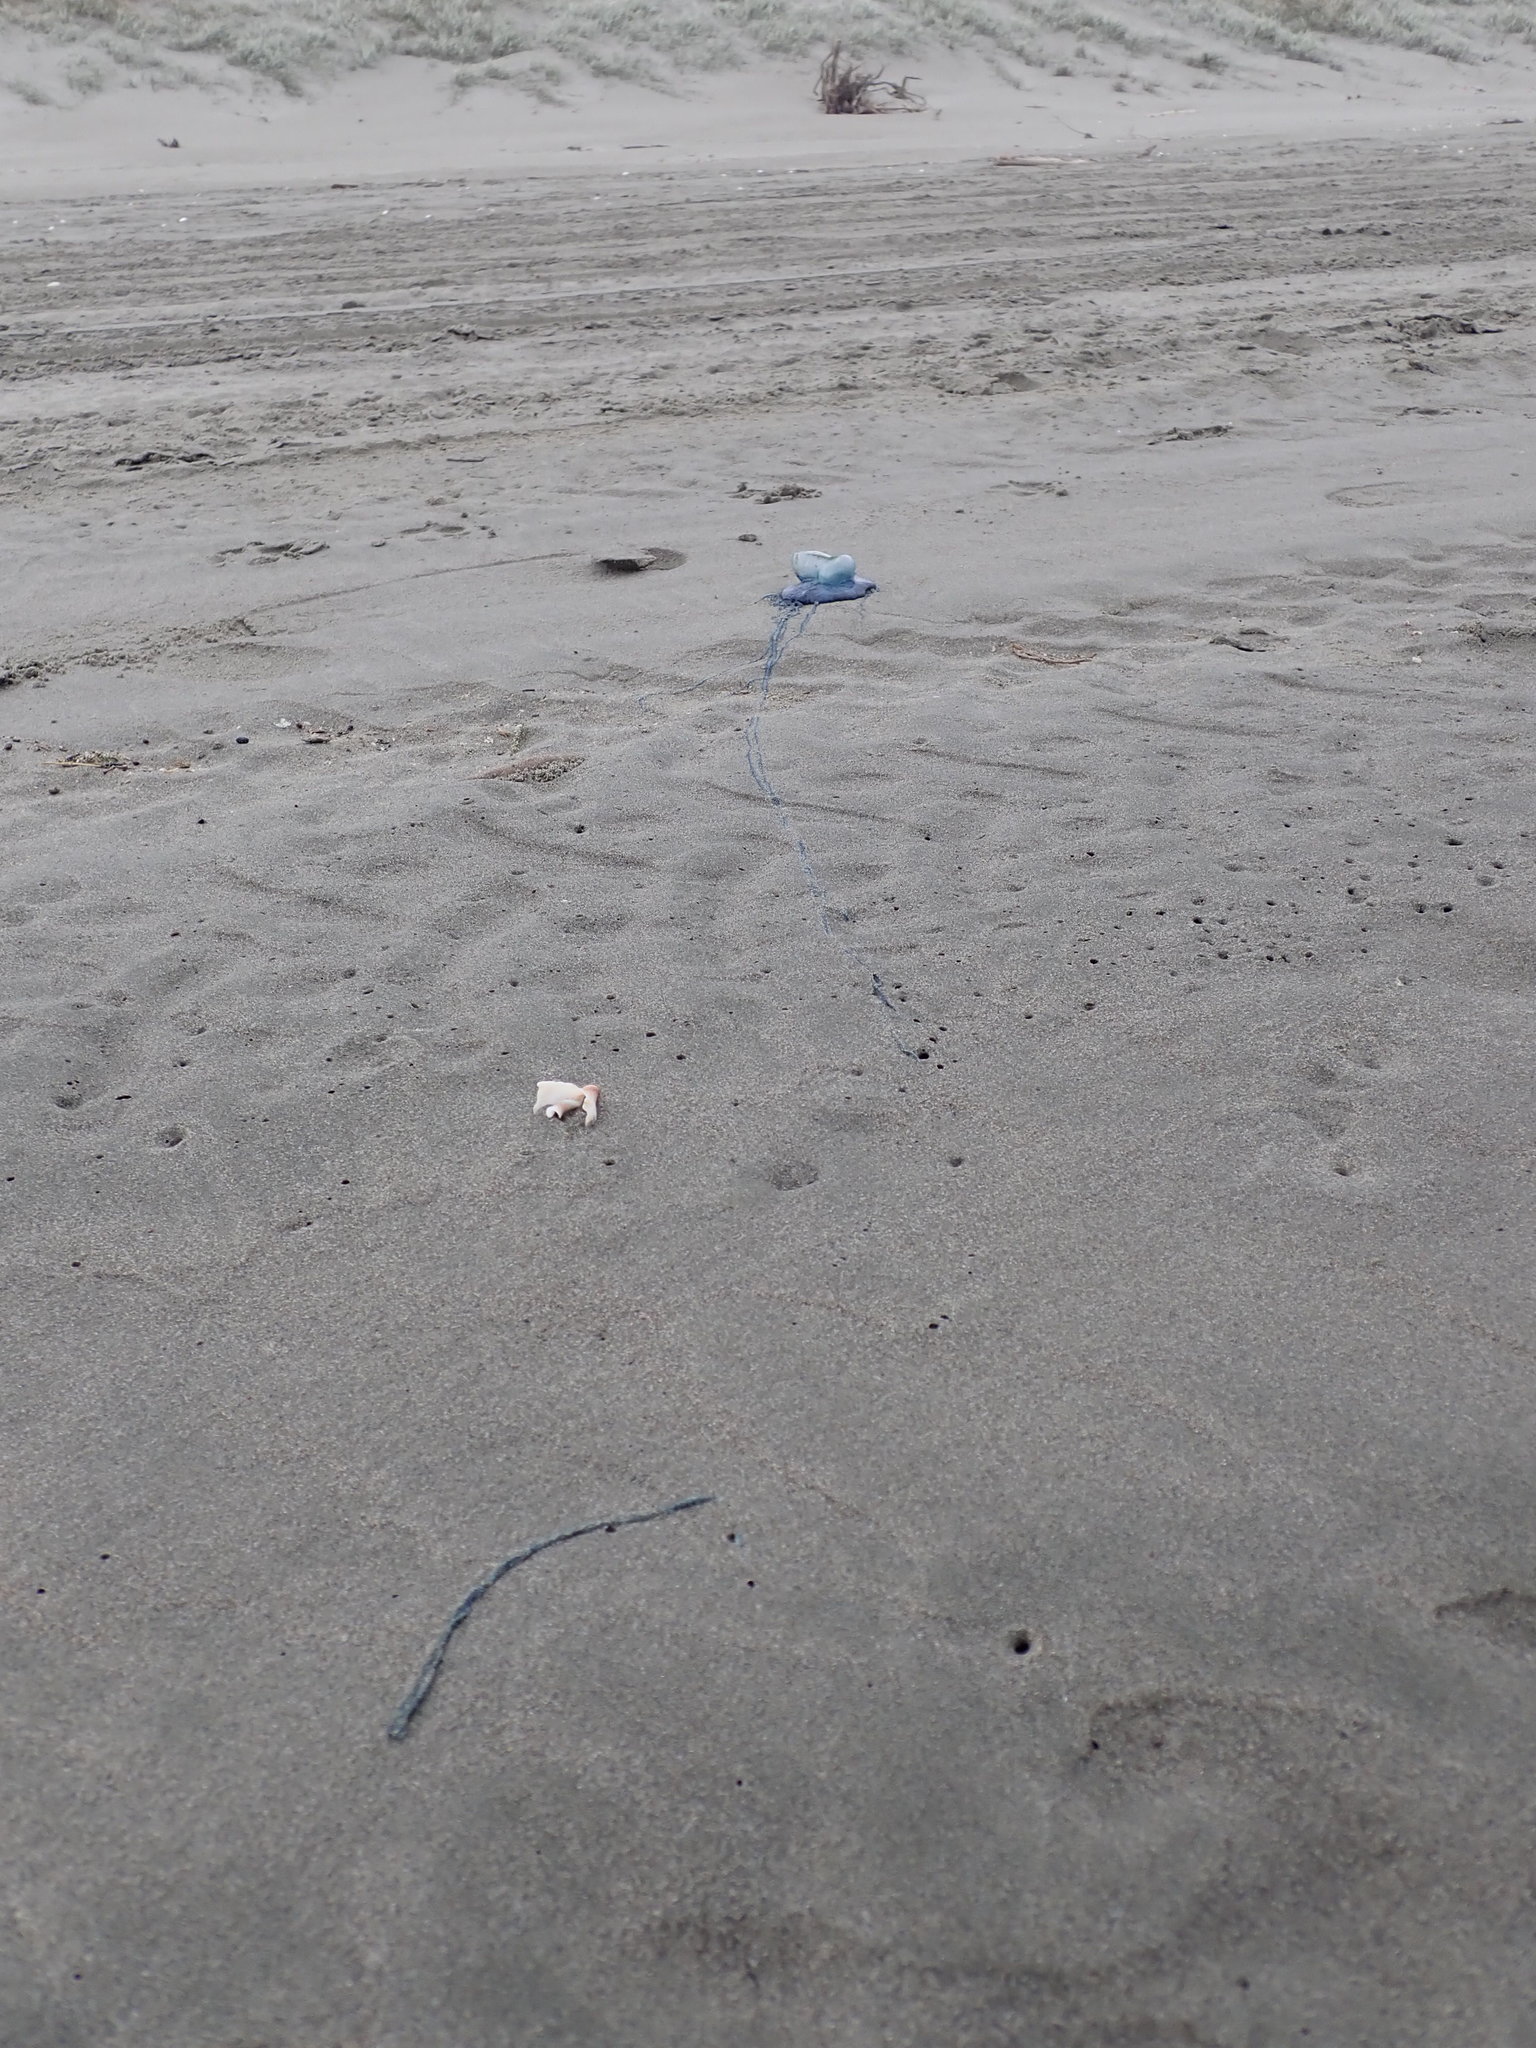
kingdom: Animalia
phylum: Cnidaria
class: Hydrozoa
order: Siphonophorae
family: Physaliidae
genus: Physalia
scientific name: Physalia physalis
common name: Portuguese man-of-war
